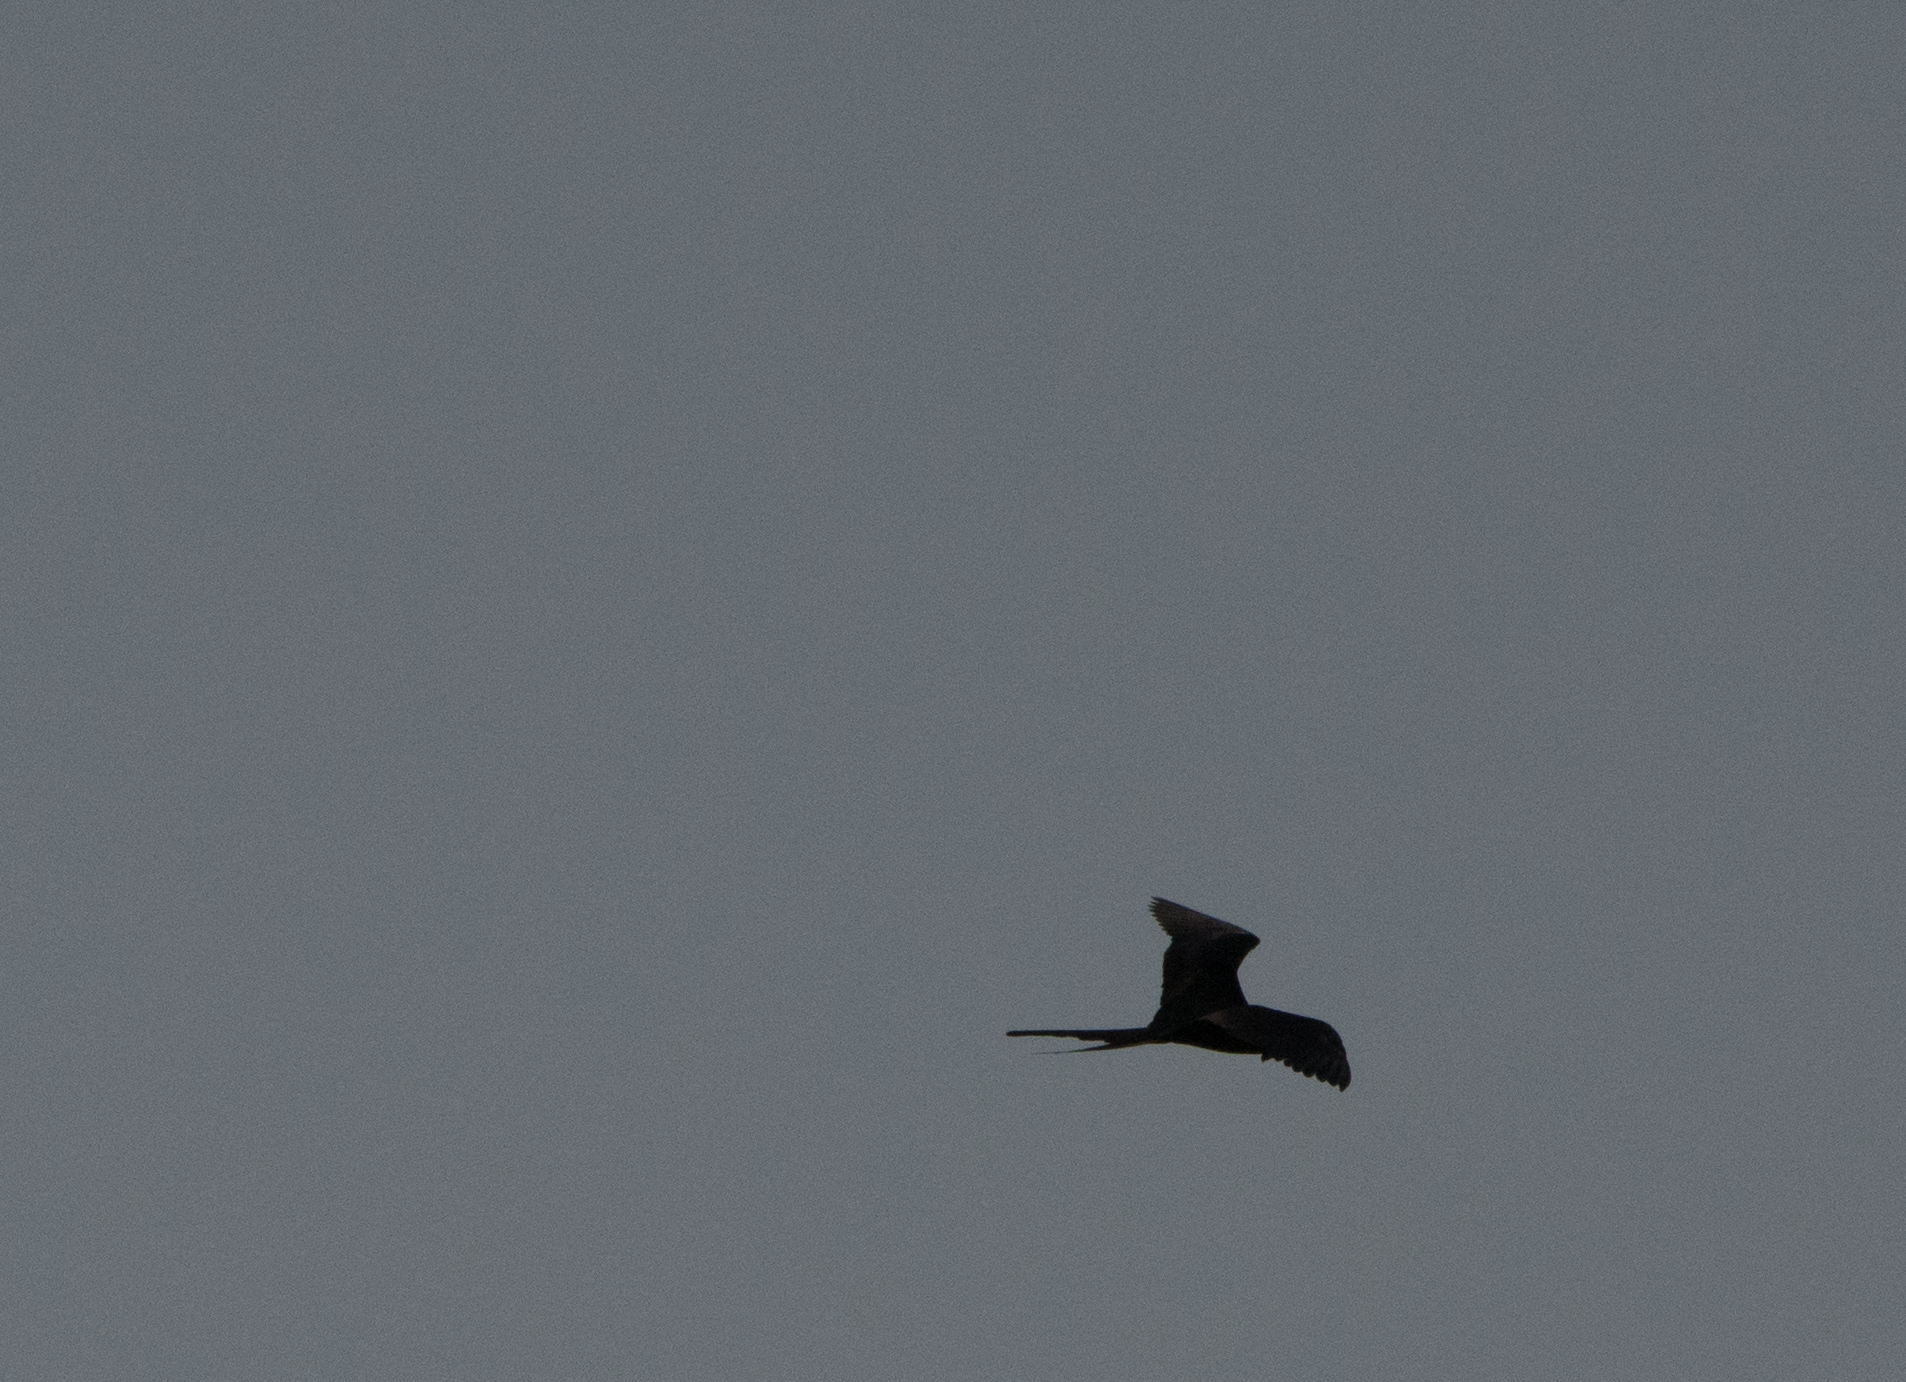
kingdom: Animalia
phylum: Chordata
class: Aves
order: Suliformes
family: Fregatidae
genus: Fregata
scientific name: Fregata magnificens
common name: Magnificent frigatebird
